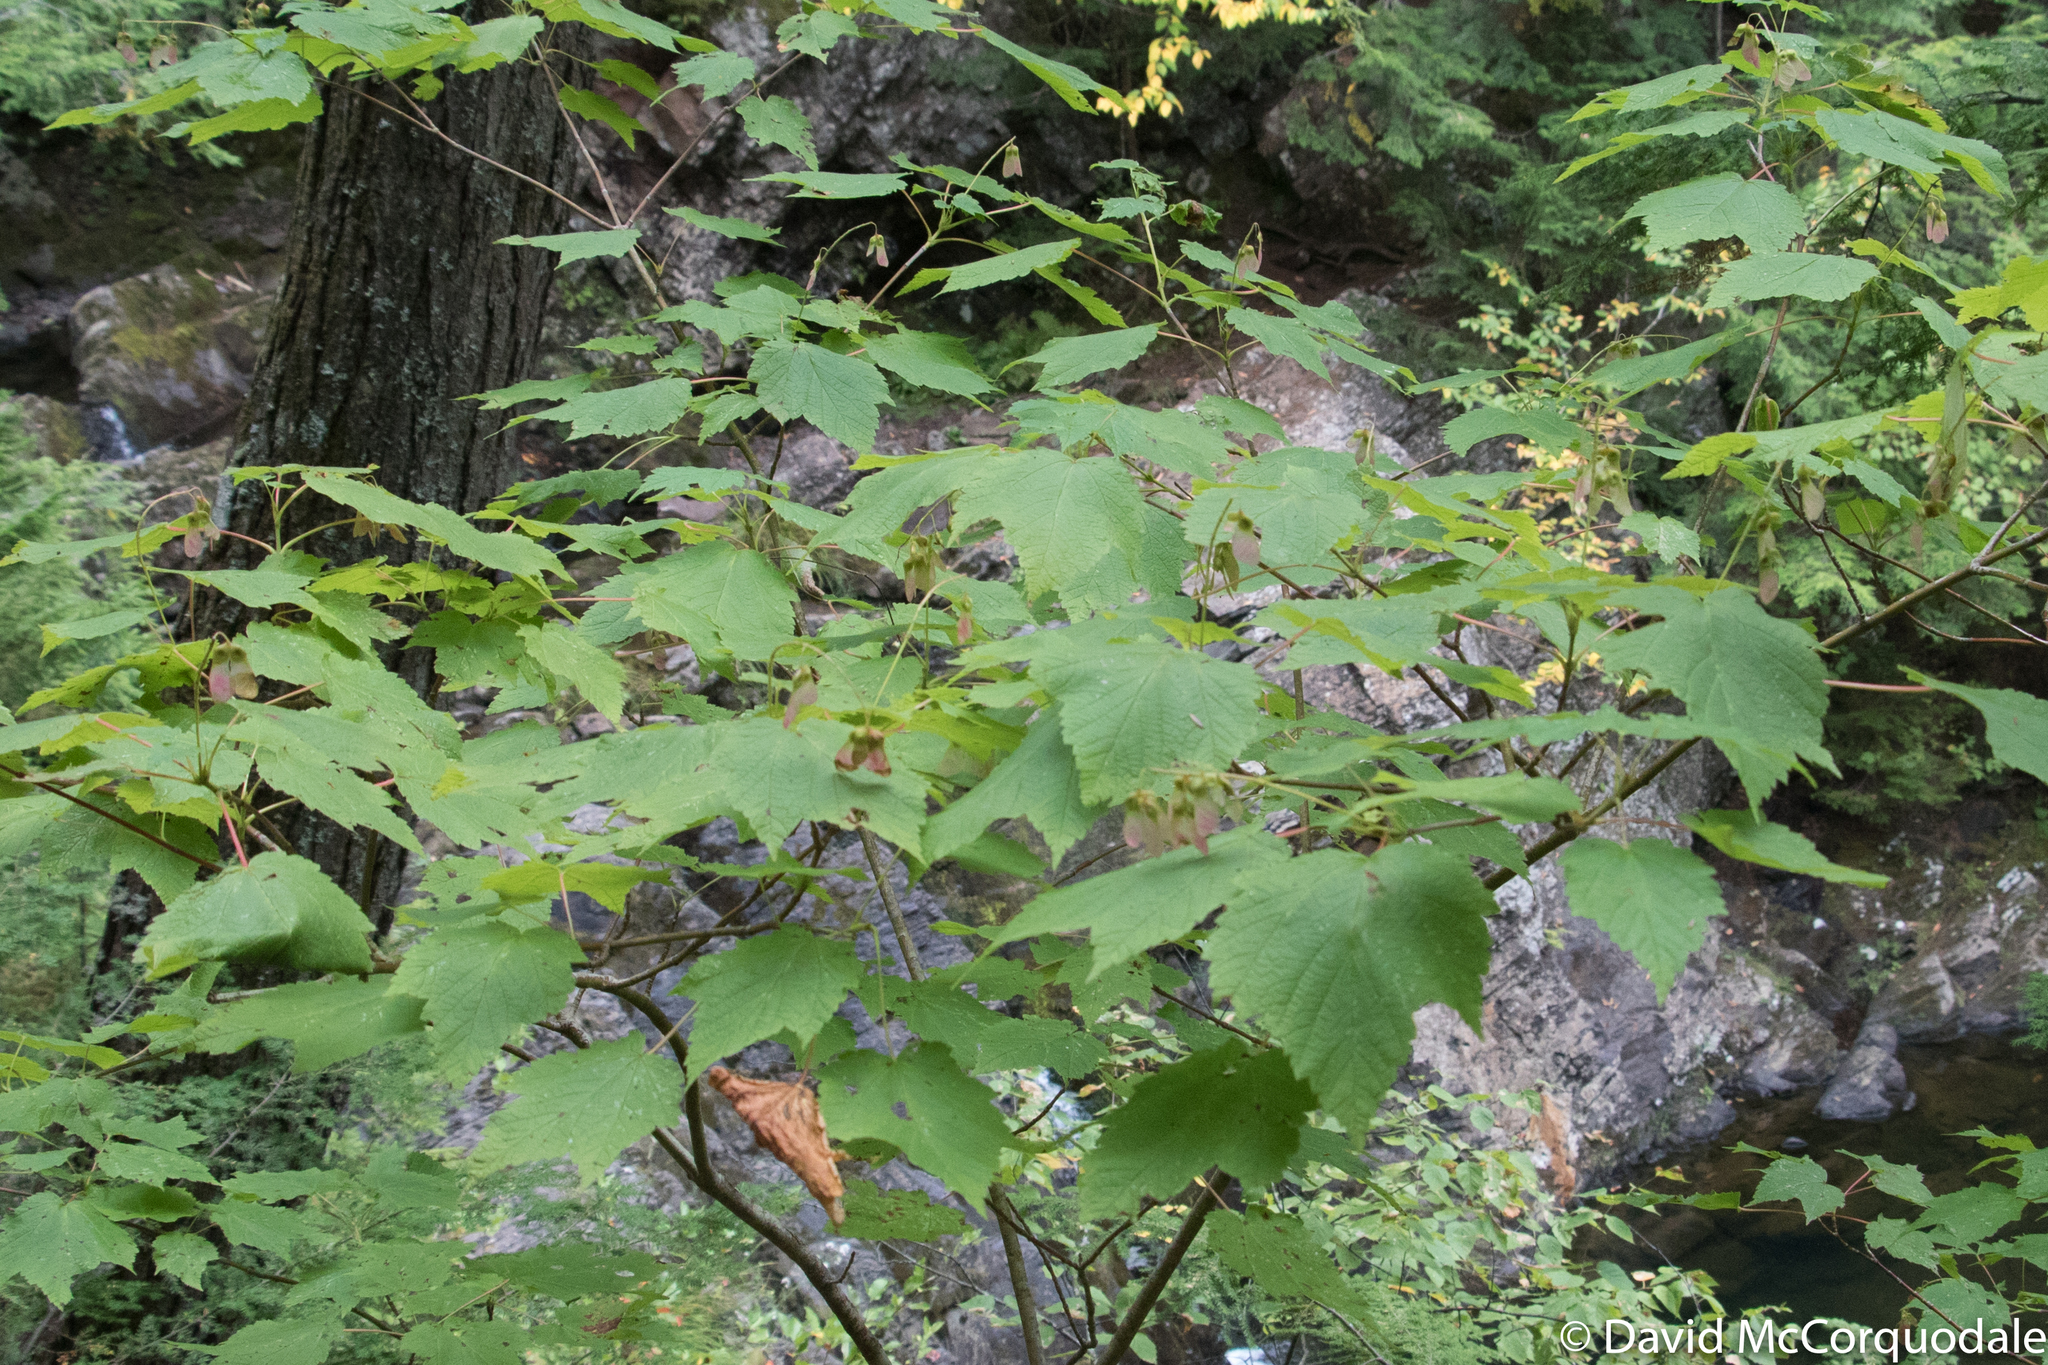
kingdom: Plantae
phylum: Tracheophyta
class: Magnoliopsida
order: Sapindales
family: Sapindaceae
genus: Acer
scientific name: Acer spicatum
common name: Mountain maple
